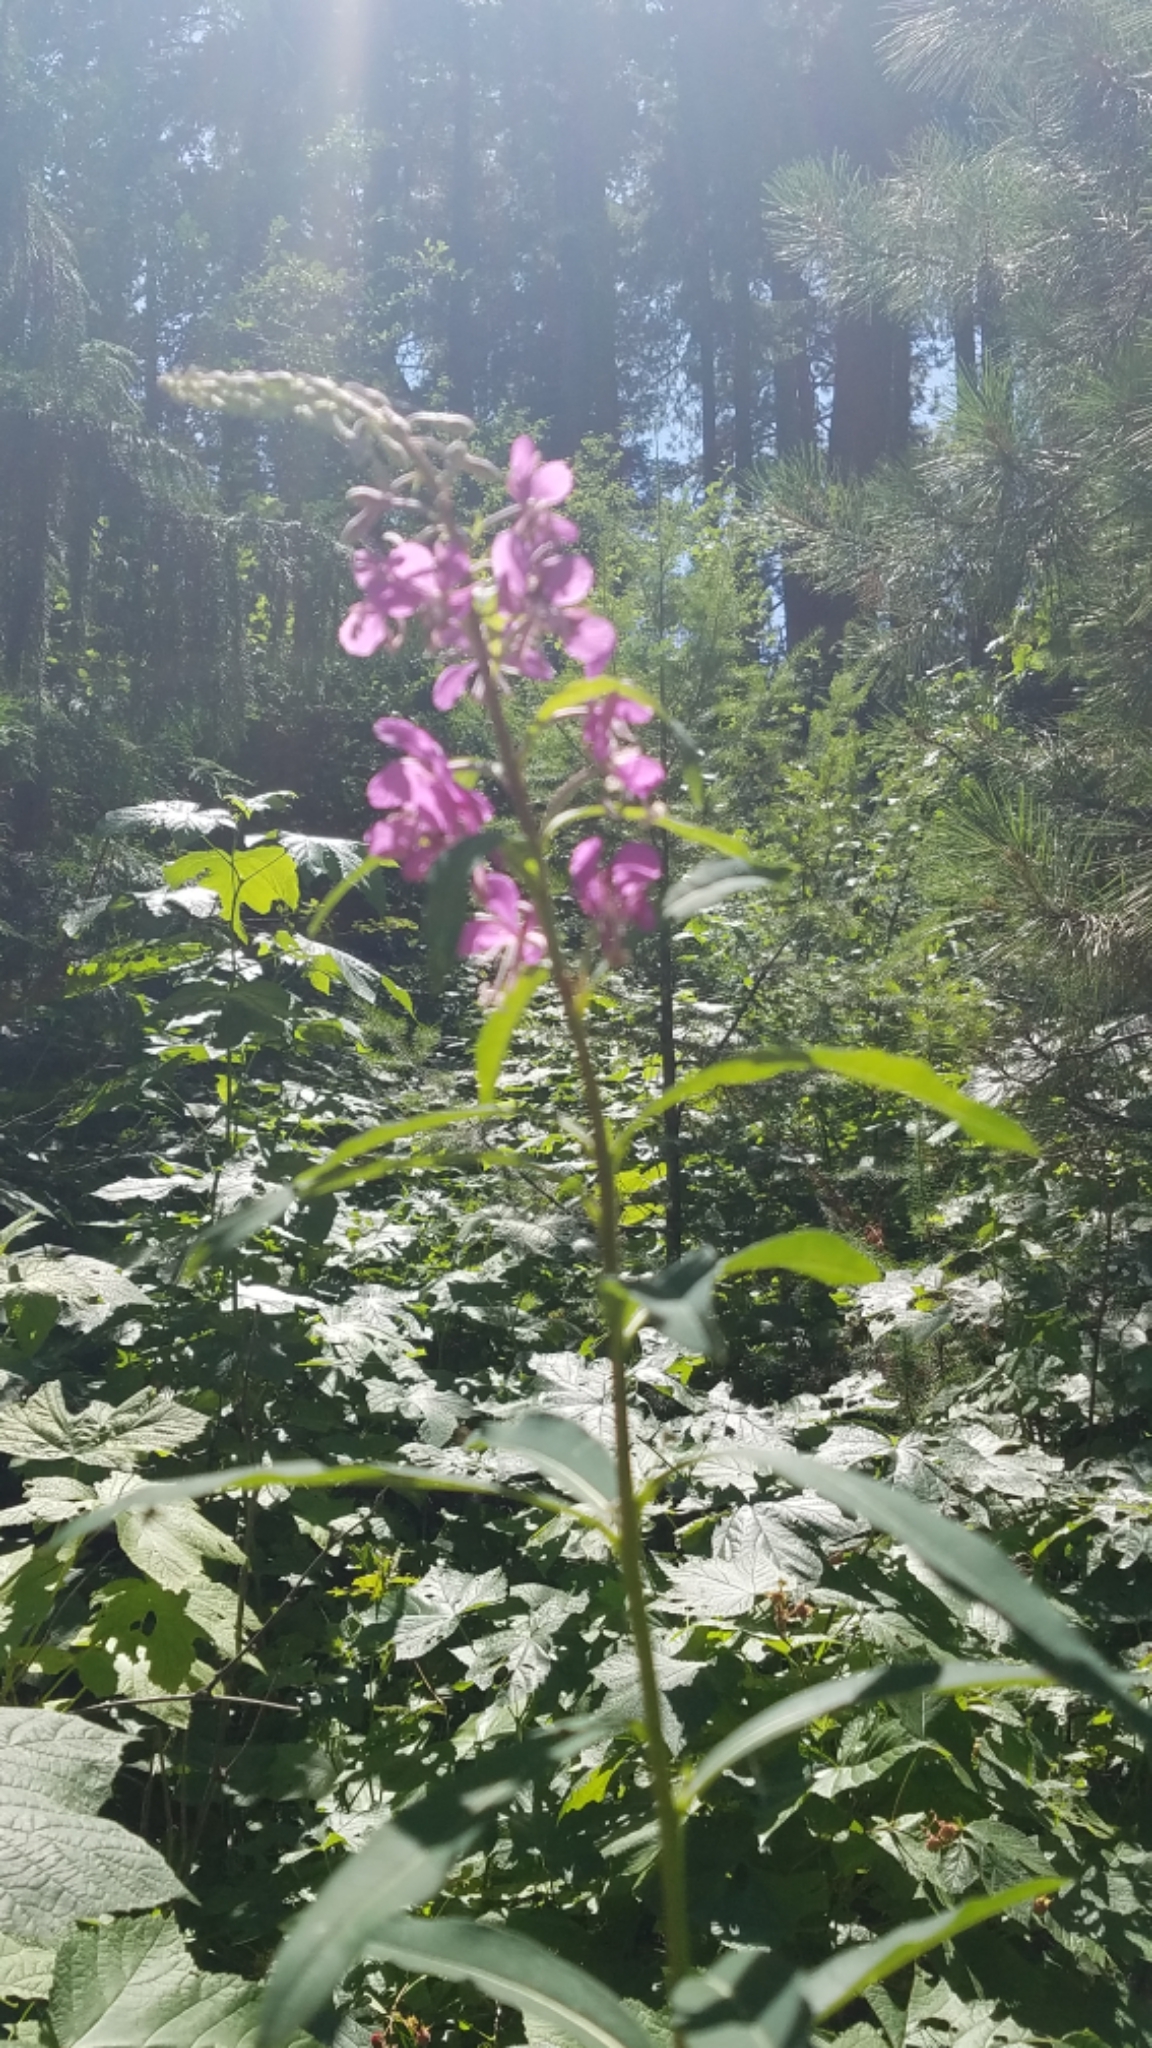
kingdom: Plantae
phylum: Tracheophyta
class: Magnoliopsida
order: Myrtales
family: Onagraceae
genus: Chamaenerion
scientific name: Chamaenerion angustifolium
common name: Fireweed
